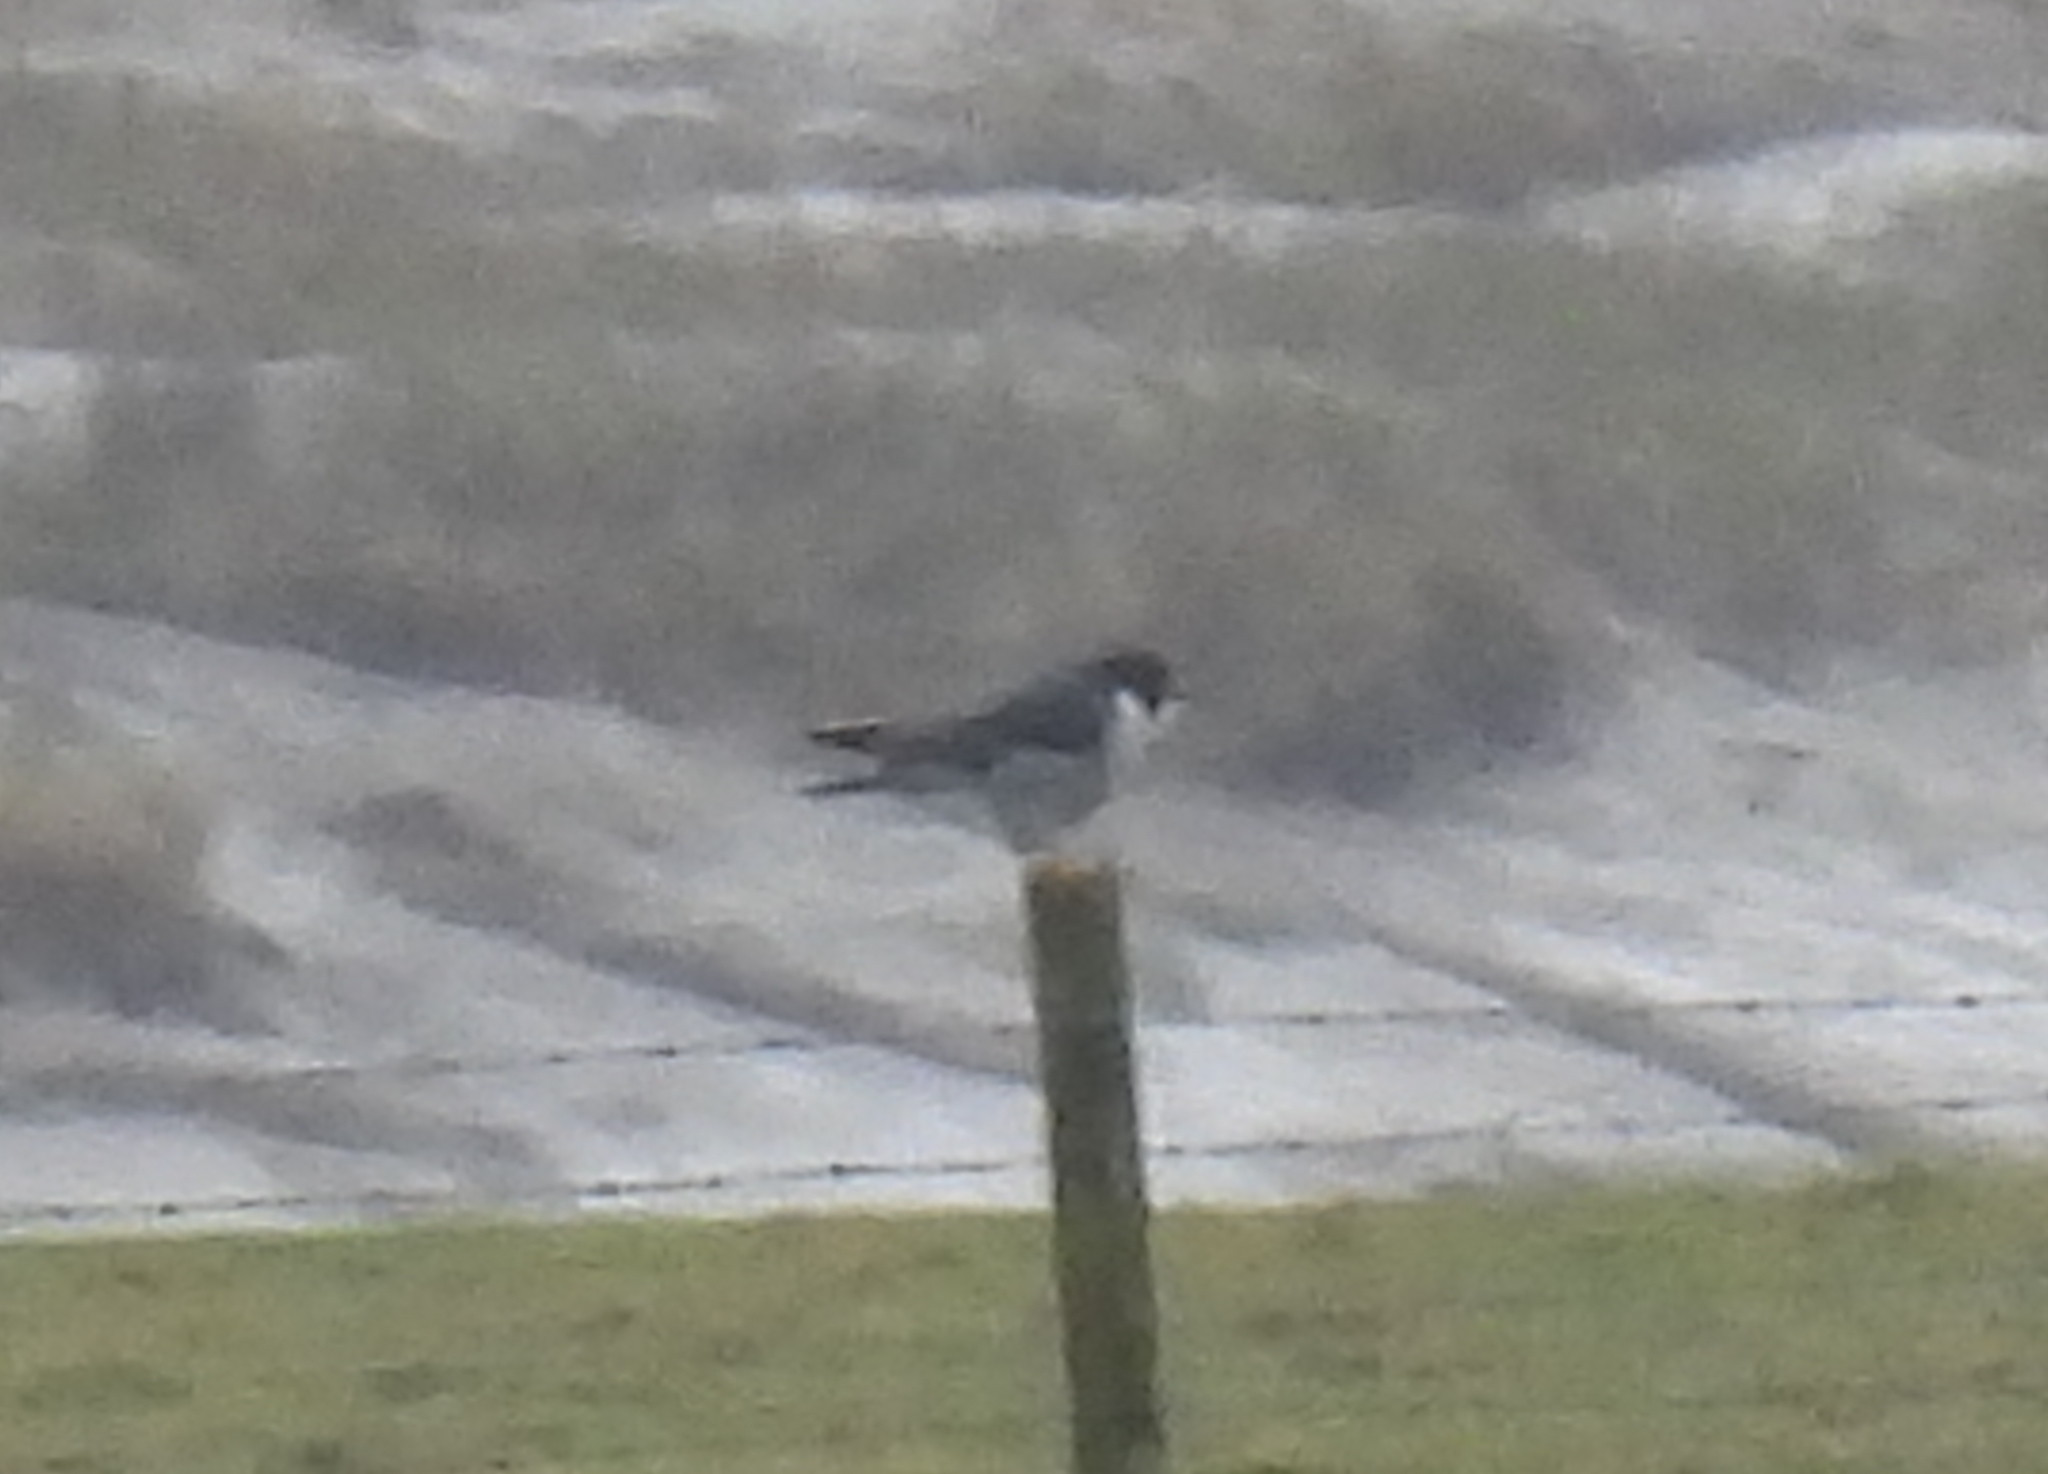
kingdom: Animalia
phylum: Chordata
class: Aves
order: Falconiformes
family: Falconidae
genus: Falco
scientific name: Falco peregrinus
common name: Peregrine falcon
